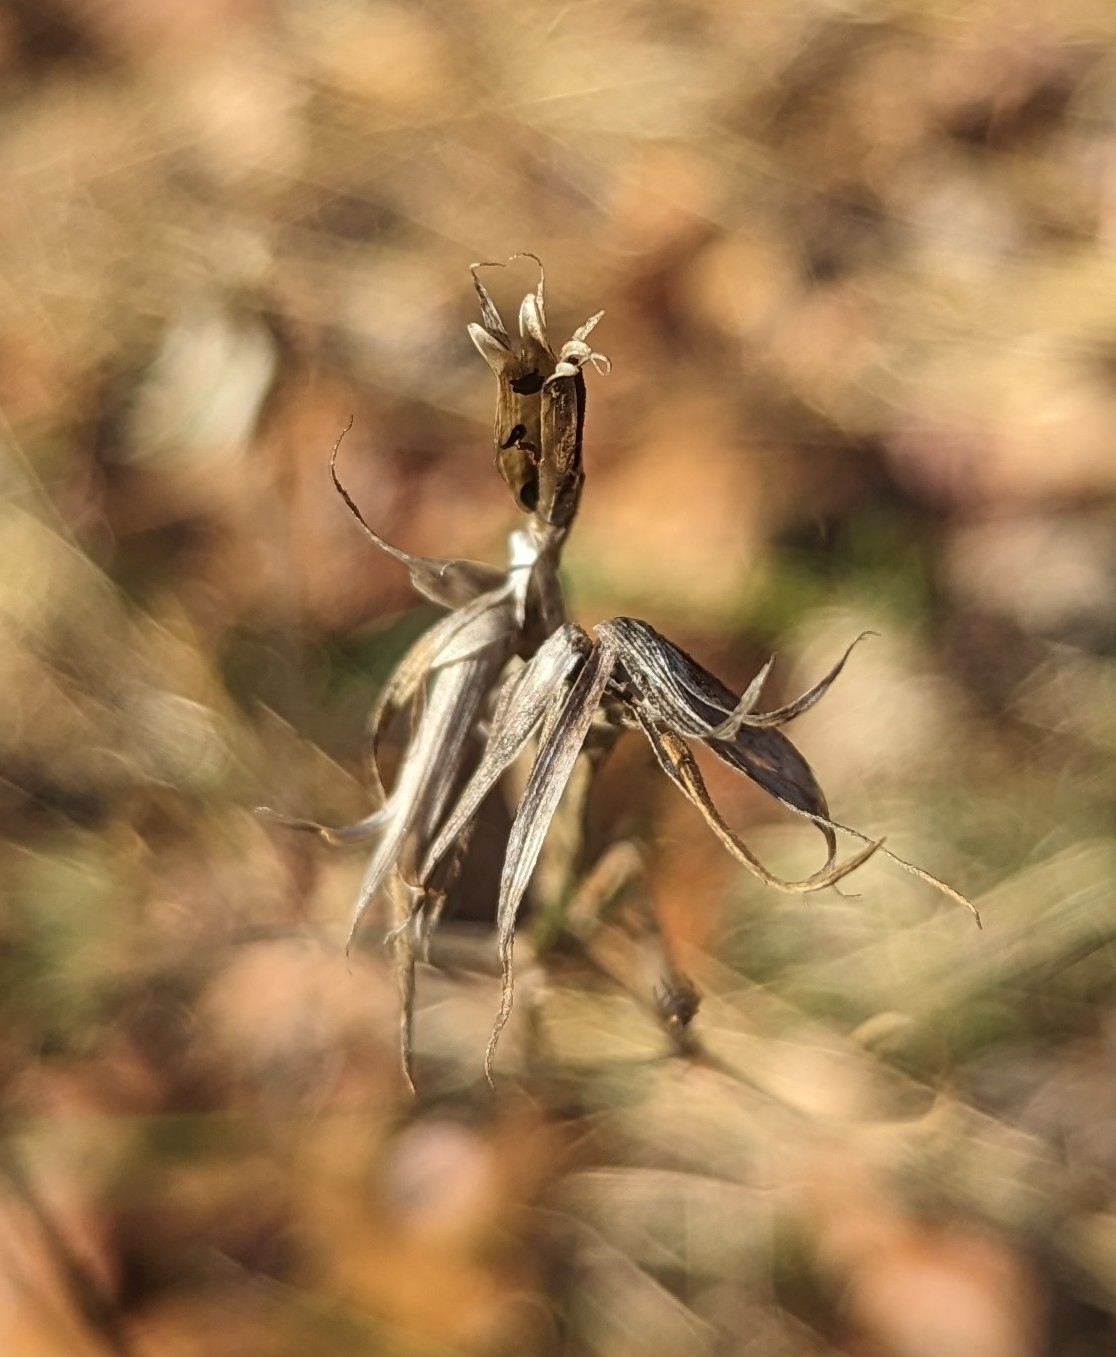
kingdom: Plantae
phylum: Tracheophyta
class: Magnoliopsida
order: Caryophyllales
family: Caryophyllaceae
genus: Dianthus
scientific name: Dianthus armeria
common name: Deptford pink
